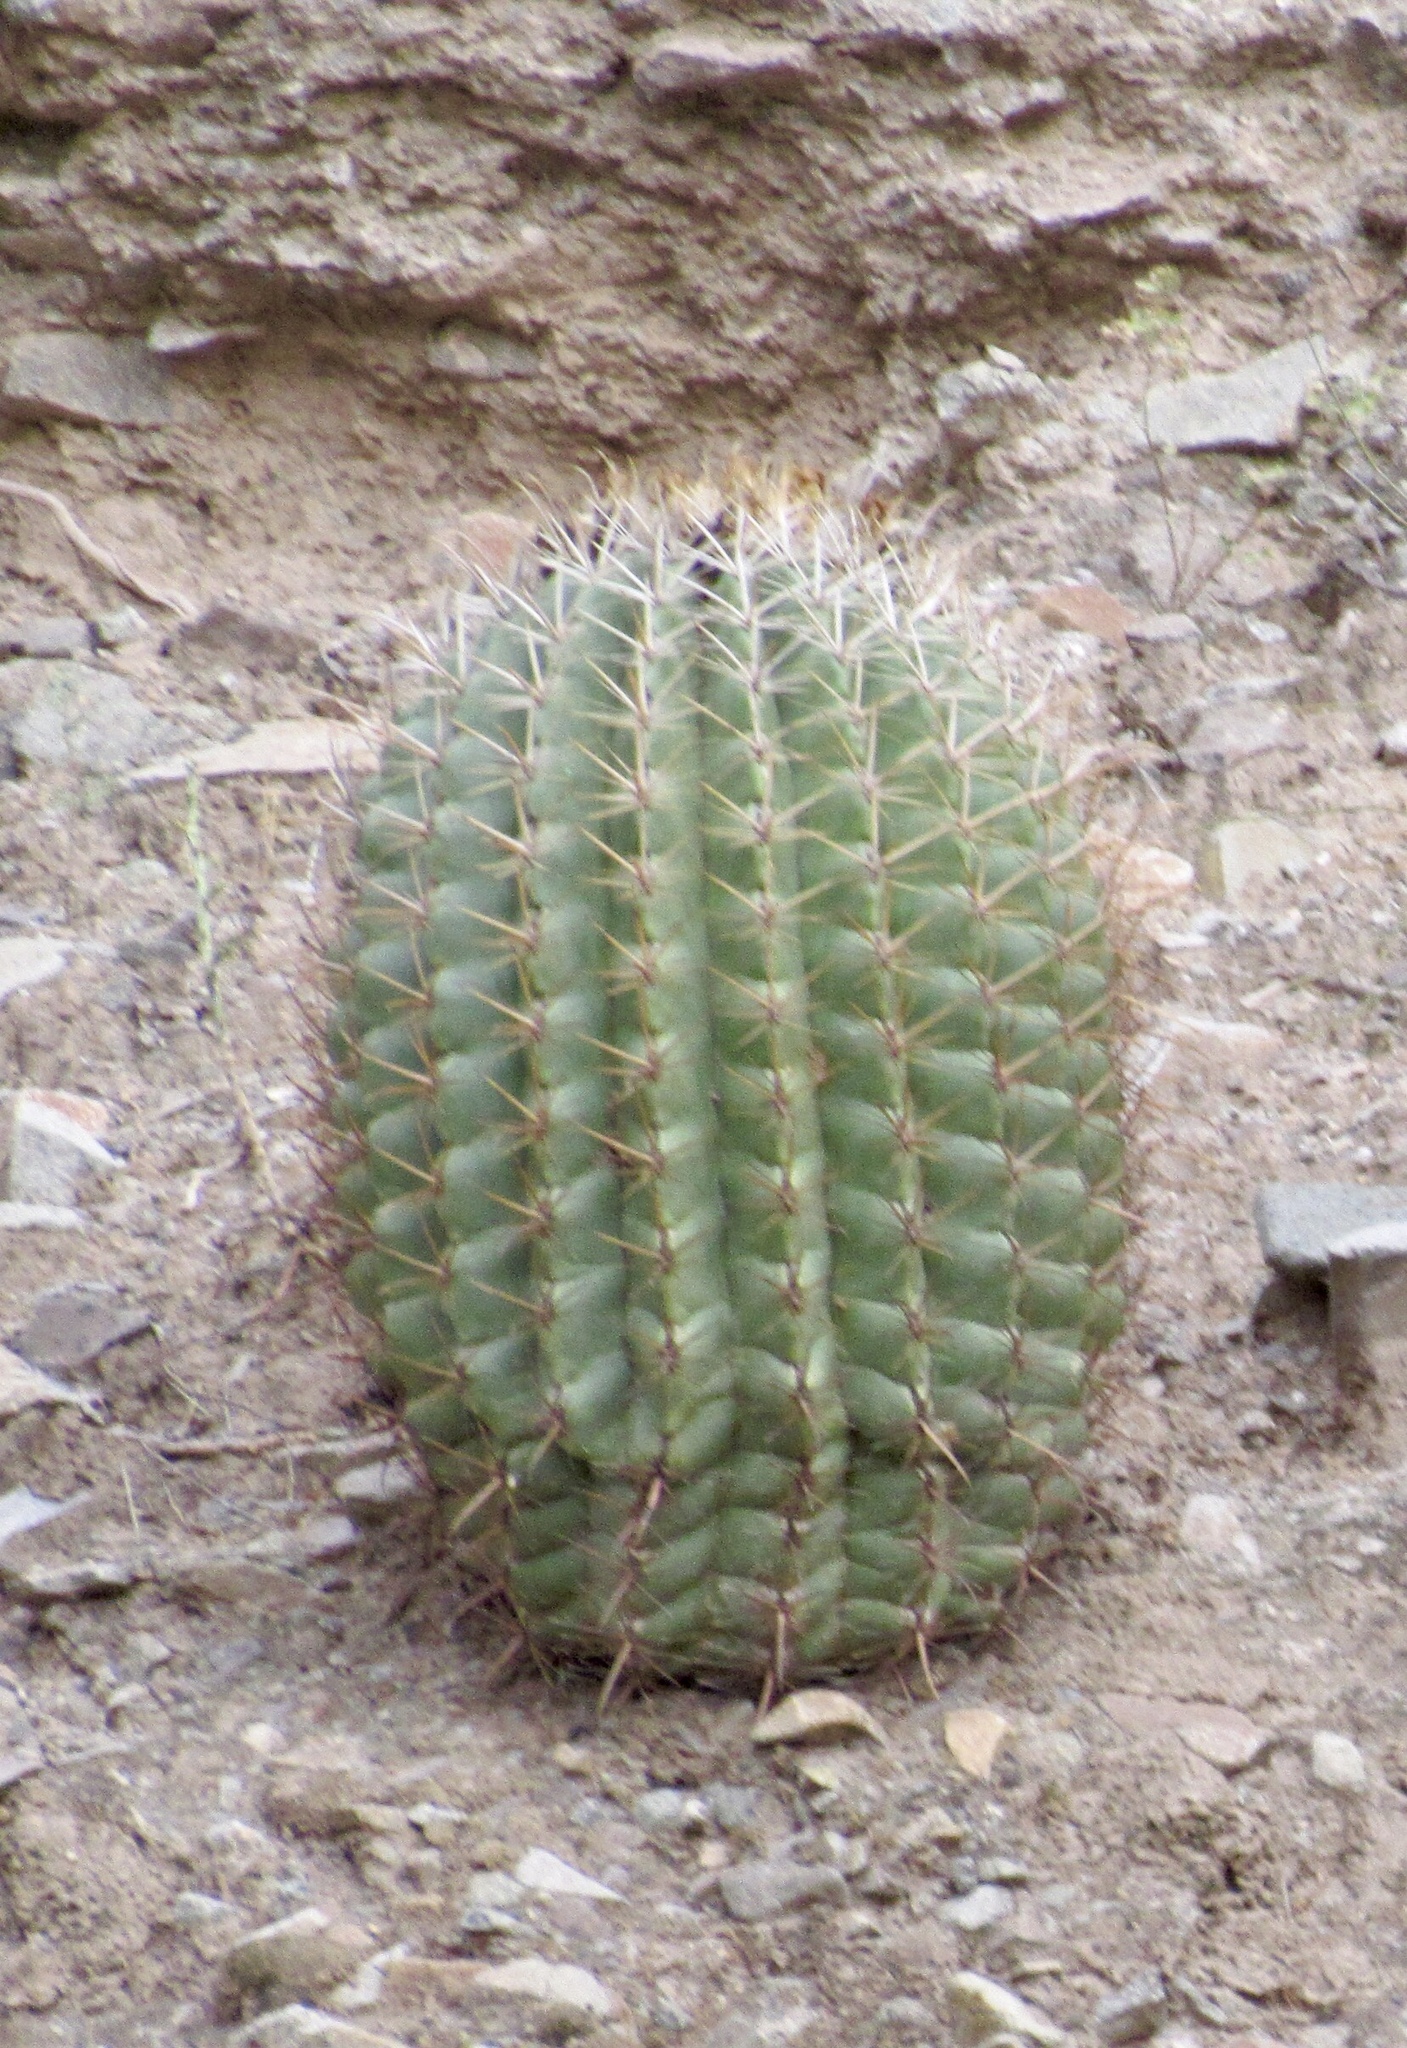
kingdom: Plantae
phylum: Tracheophyta
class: Magnoliopsida
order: Caryophyllales
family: Cactaceae
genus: Ferocactus
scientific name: Ferocactus wislizeni
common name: Candy barrel cactus
